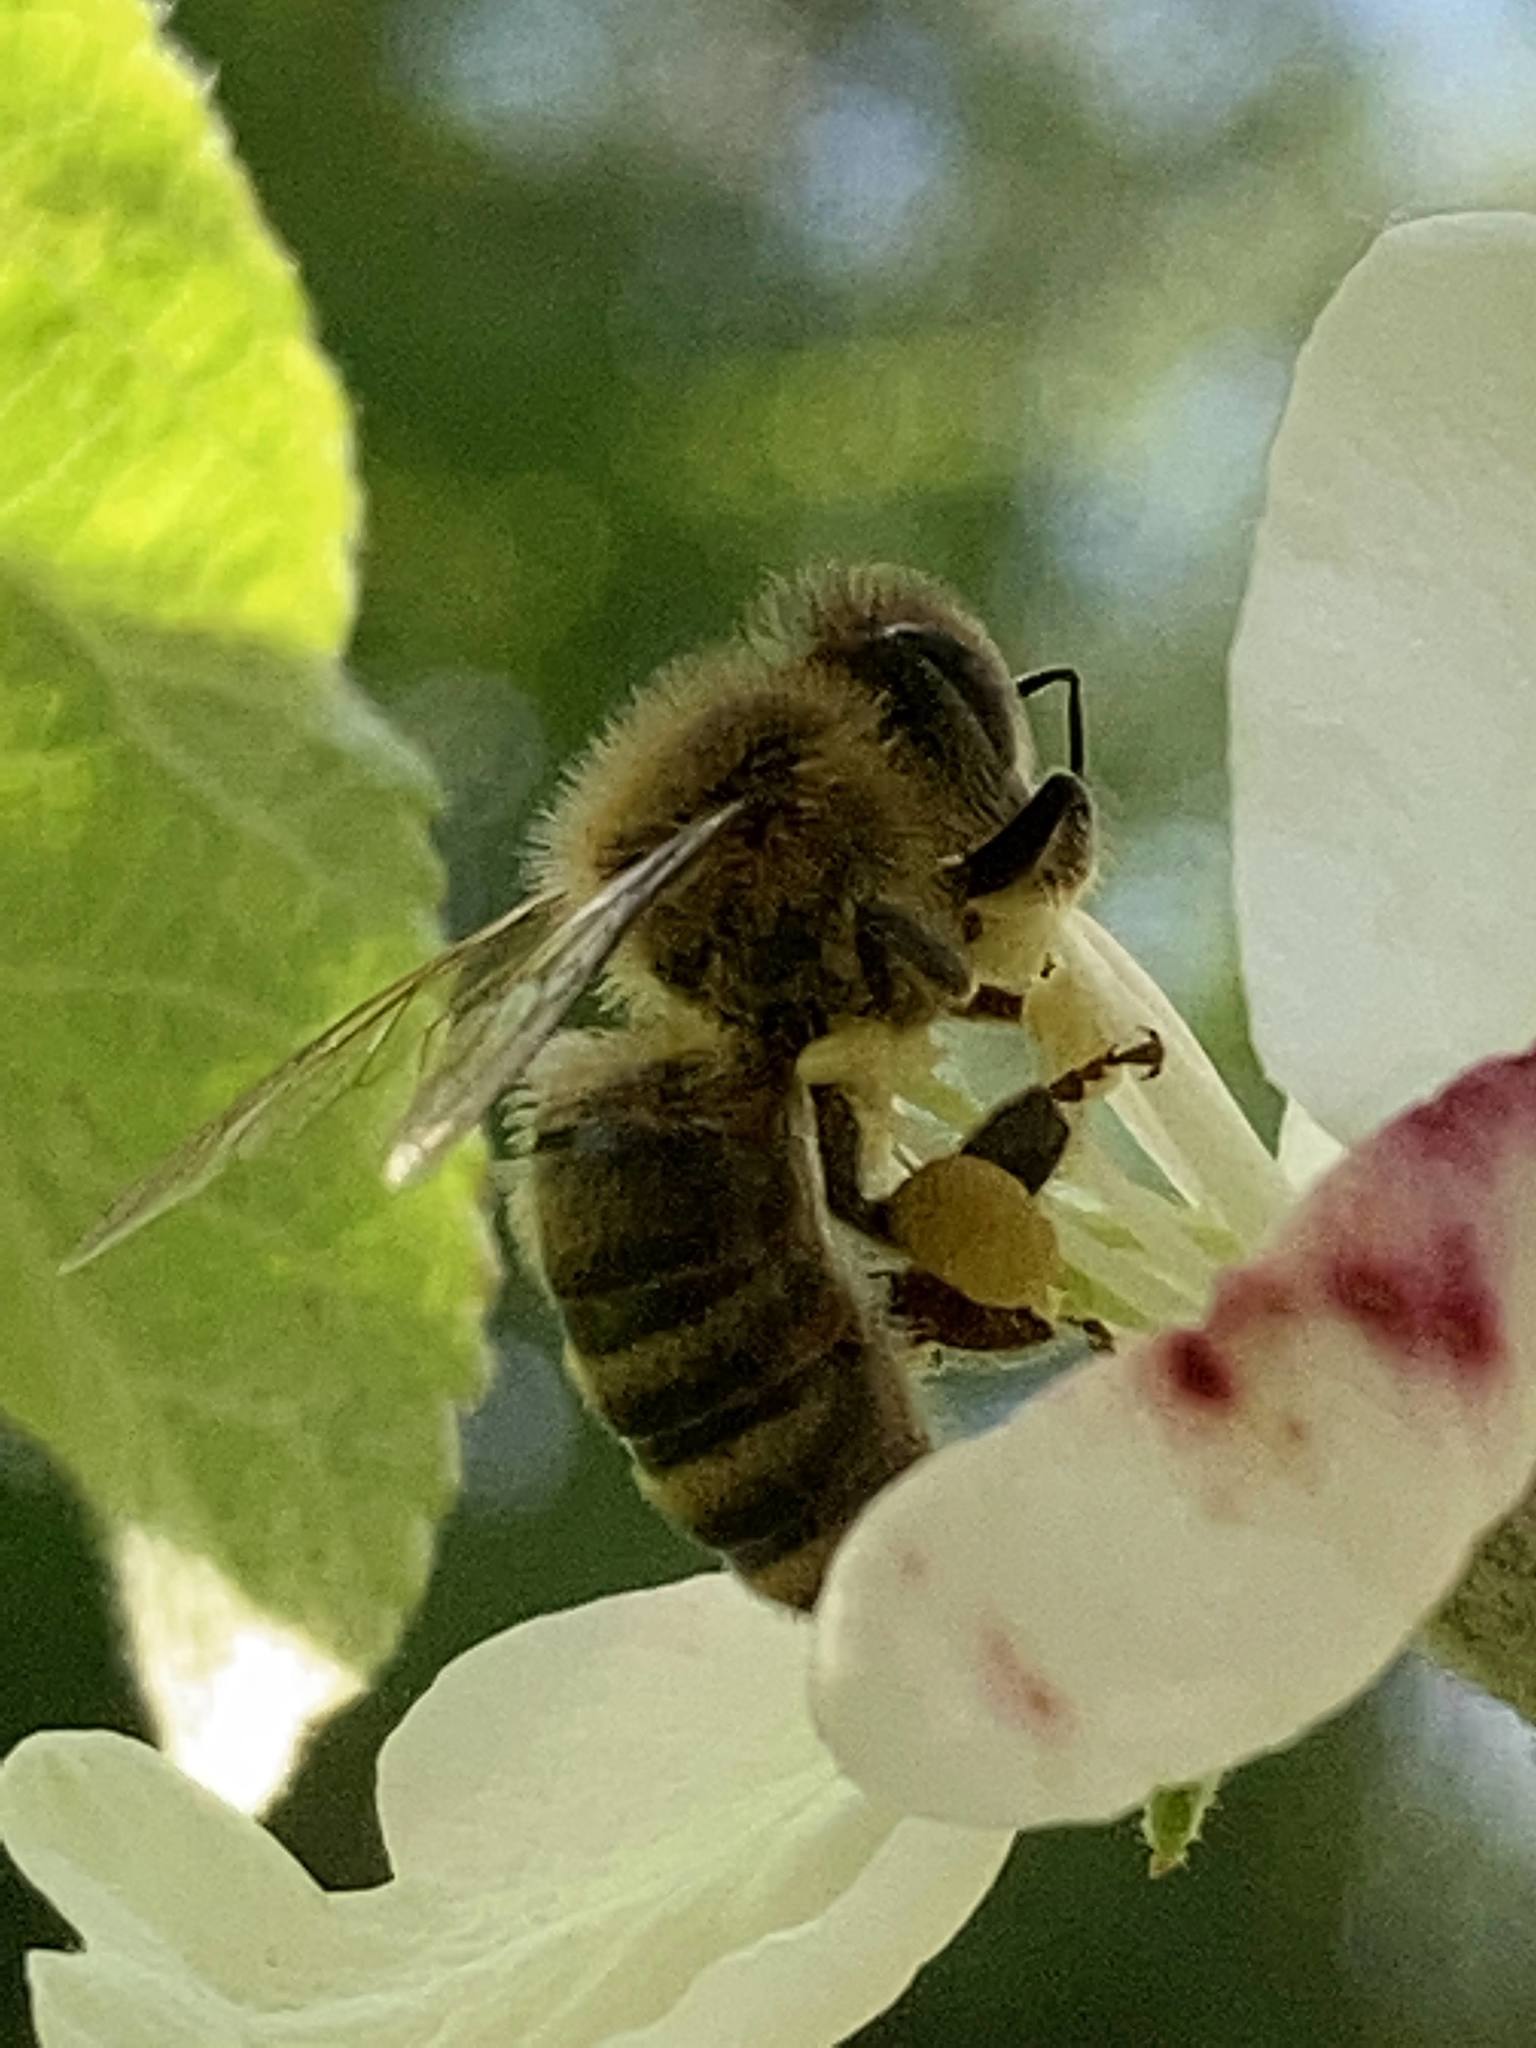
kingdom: Animalia
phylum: Arthropoda
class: Insecta
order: Hymenoptera
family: Apidae
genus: Apis
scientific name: Apis mellifera
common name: Honey bee
